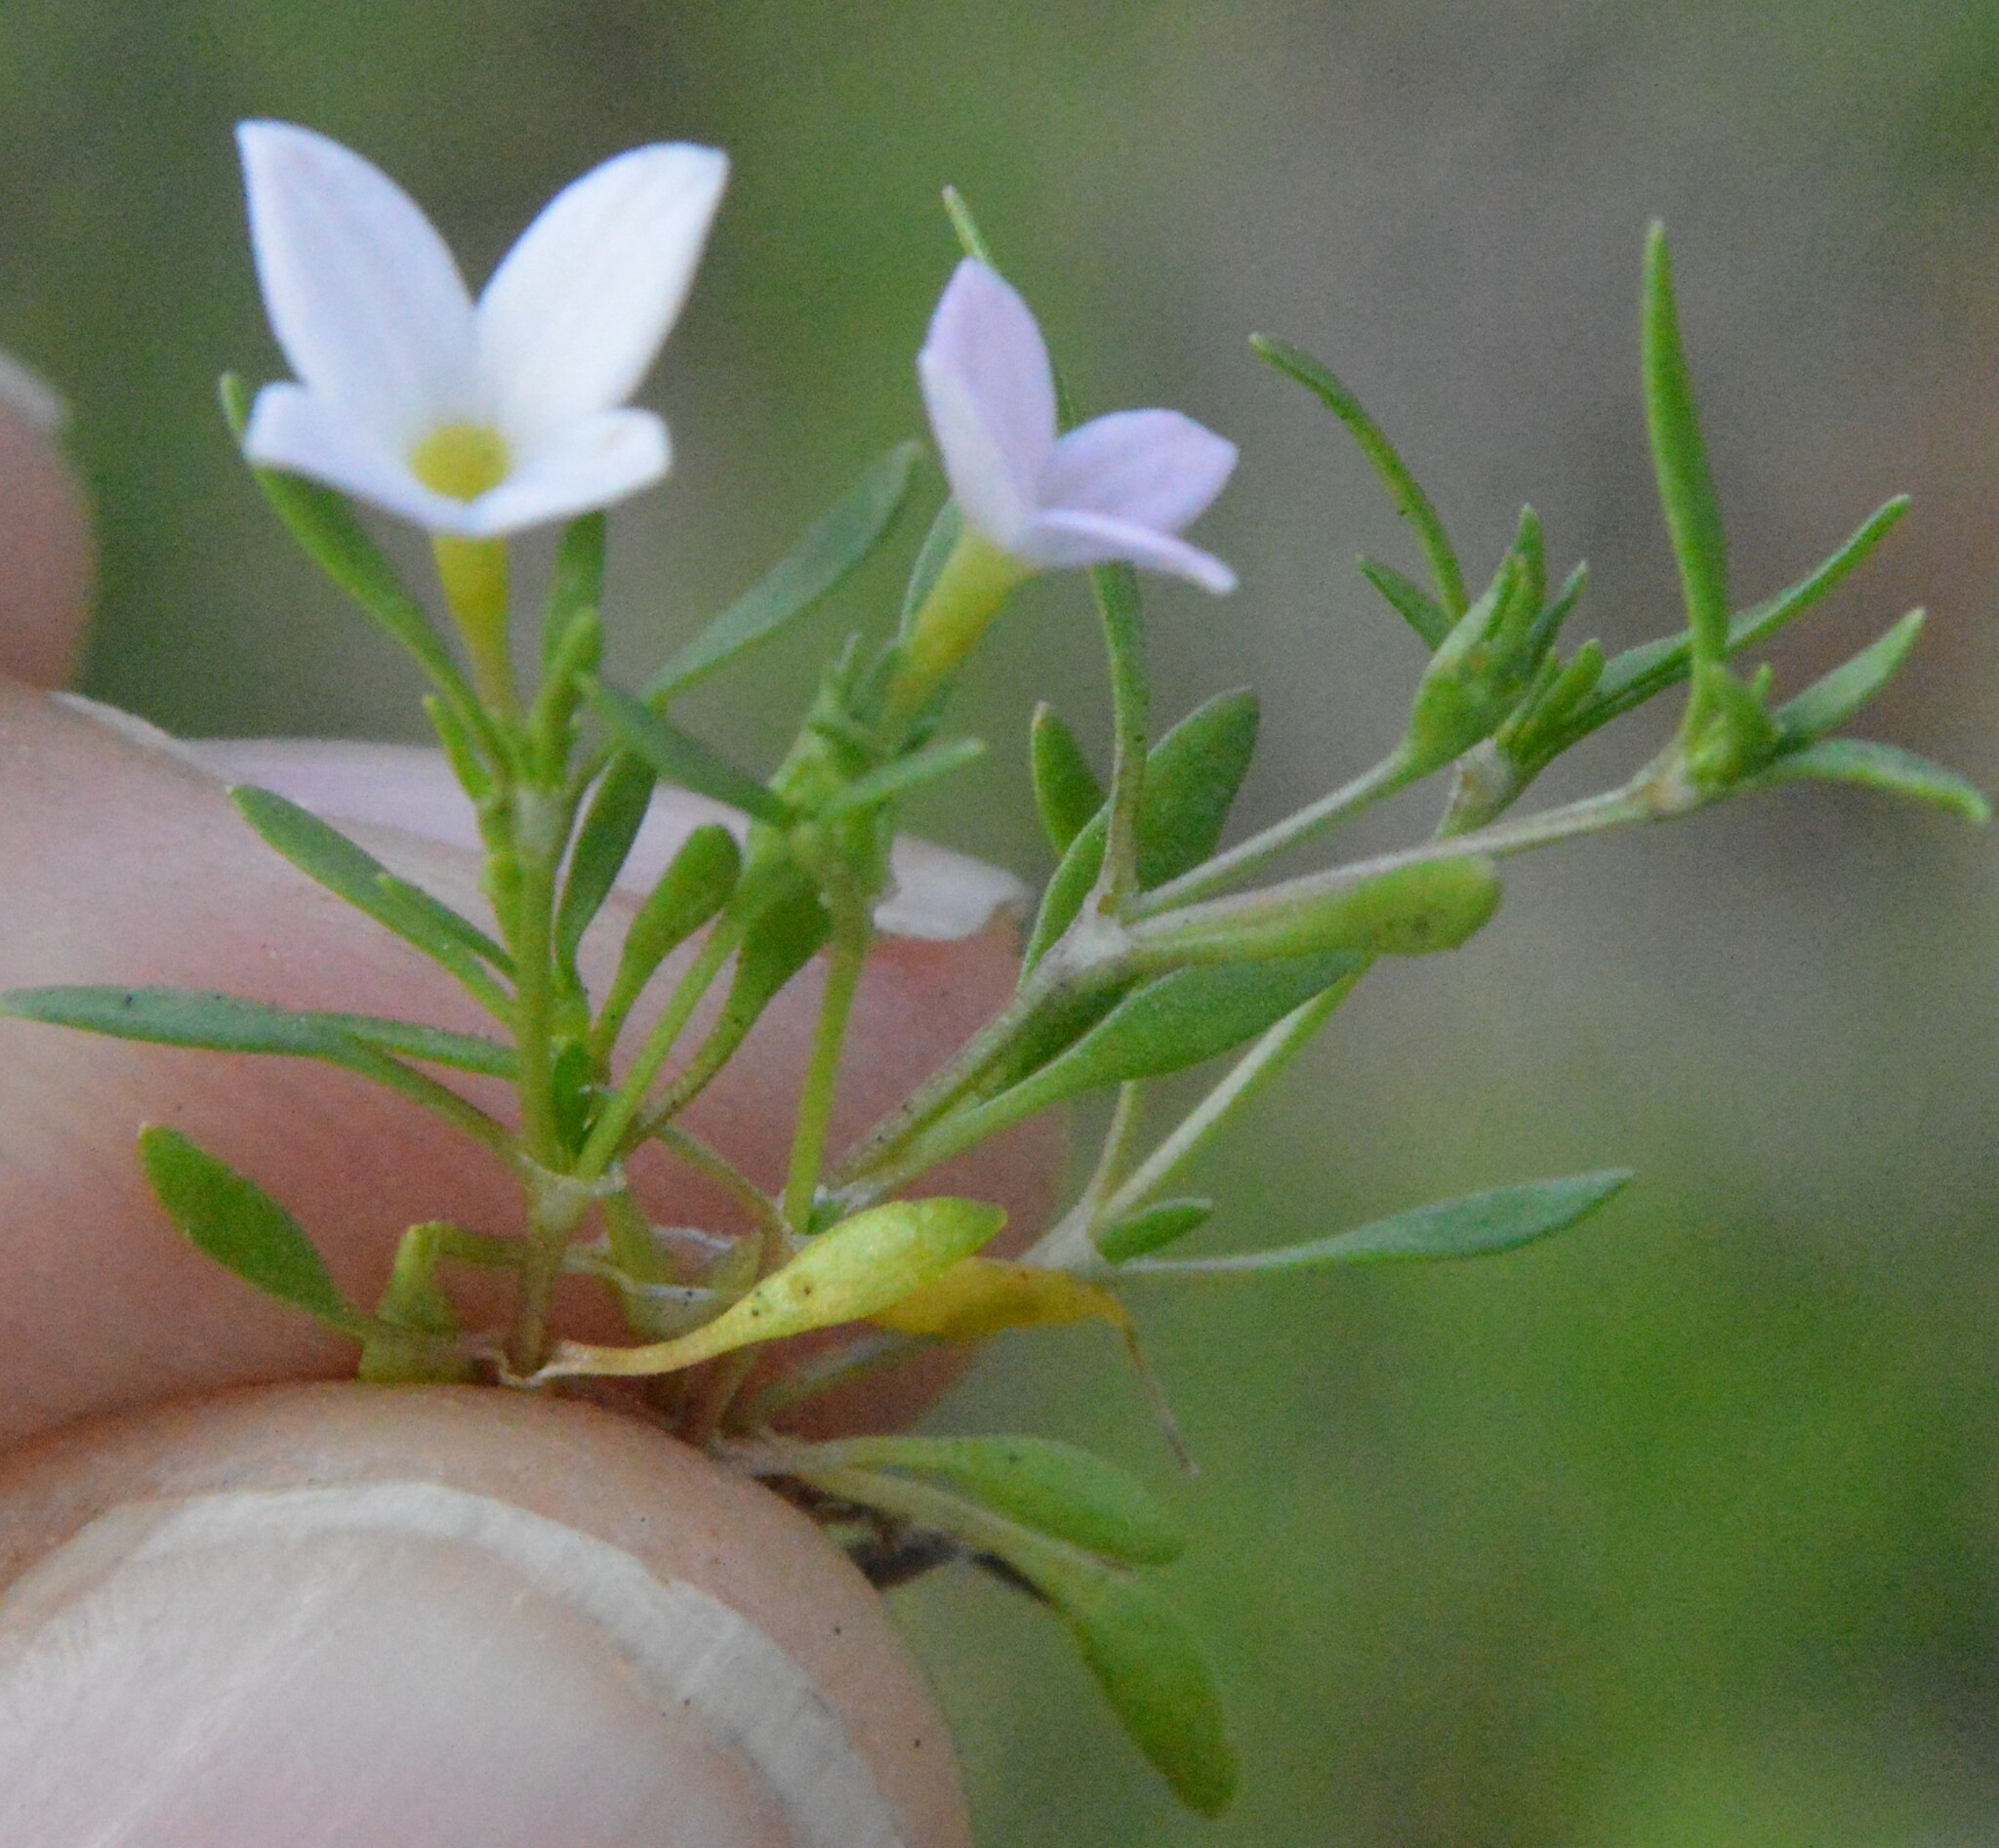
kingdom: Plantae
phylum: Tracheophyta
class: Magnoliopsida
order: Gentianales
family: Rubiaceae
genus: Houstonia
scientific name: Houstonia rosea
